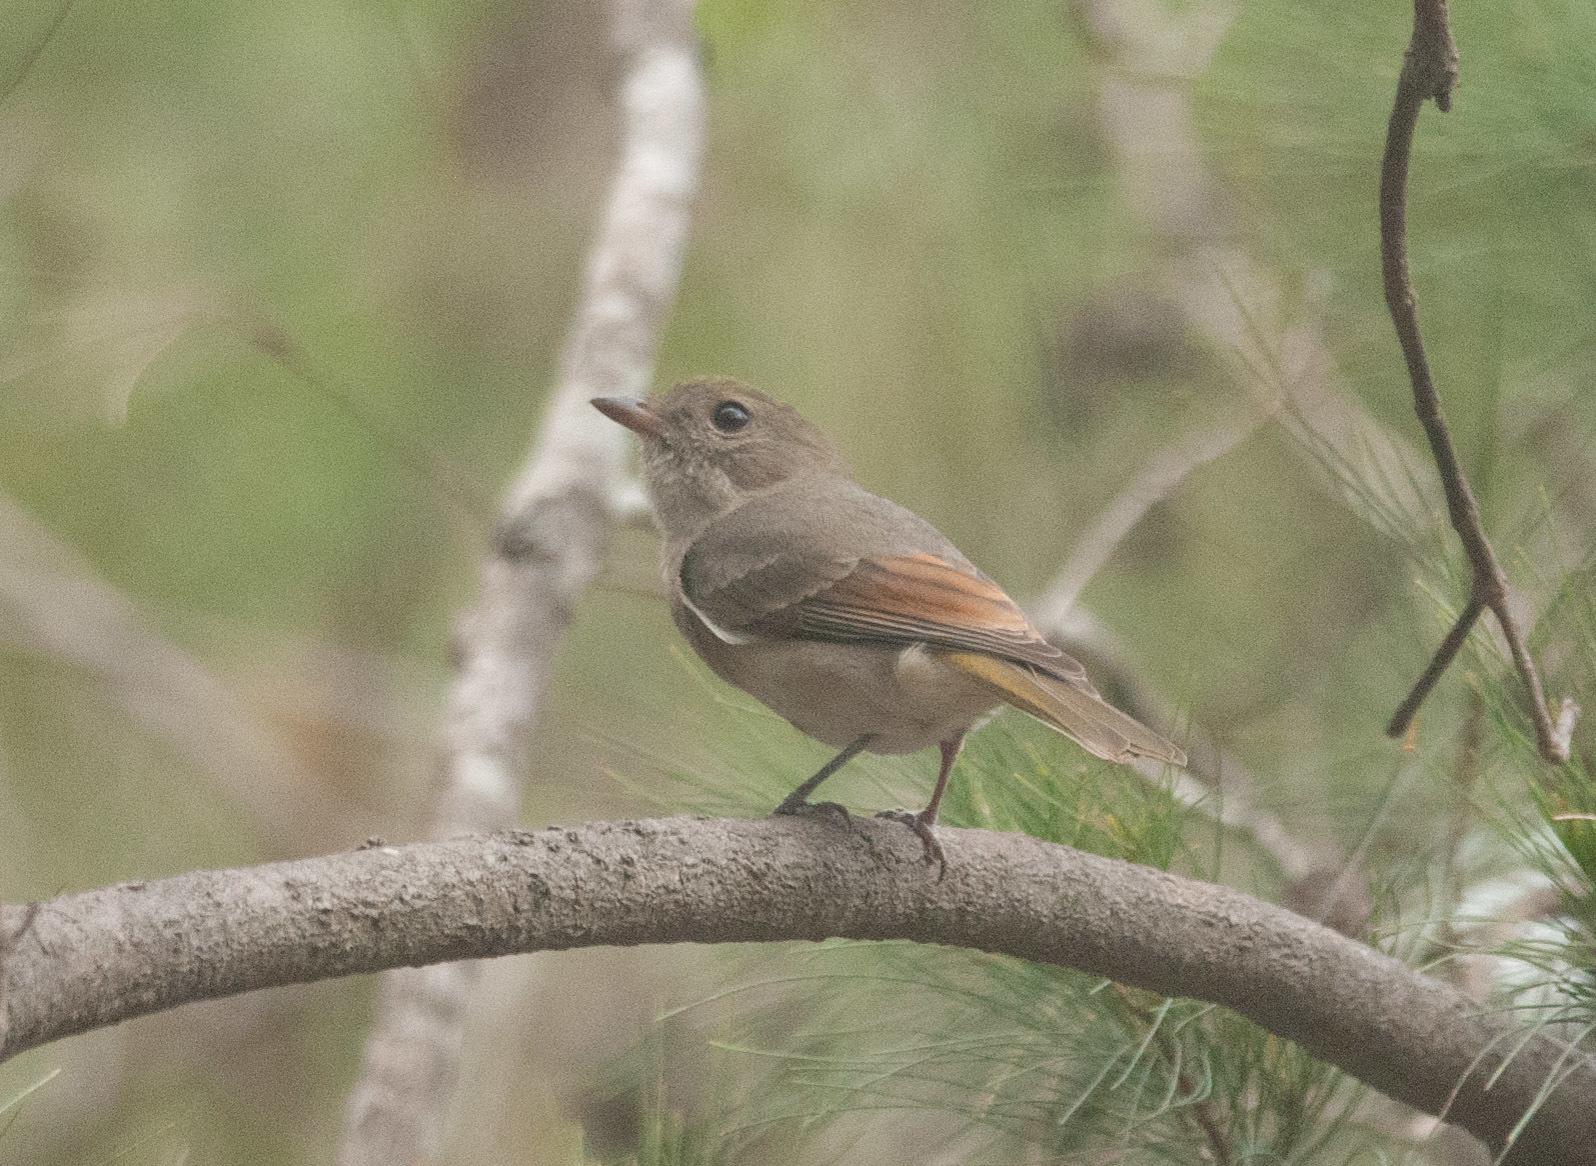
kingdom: Animalia
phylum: Chordata
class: Aves
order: Passeriformes
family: Pachycephalidae
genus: Pachycephala
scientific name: Pachycephala pectoralis
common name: Australian golden whistler
